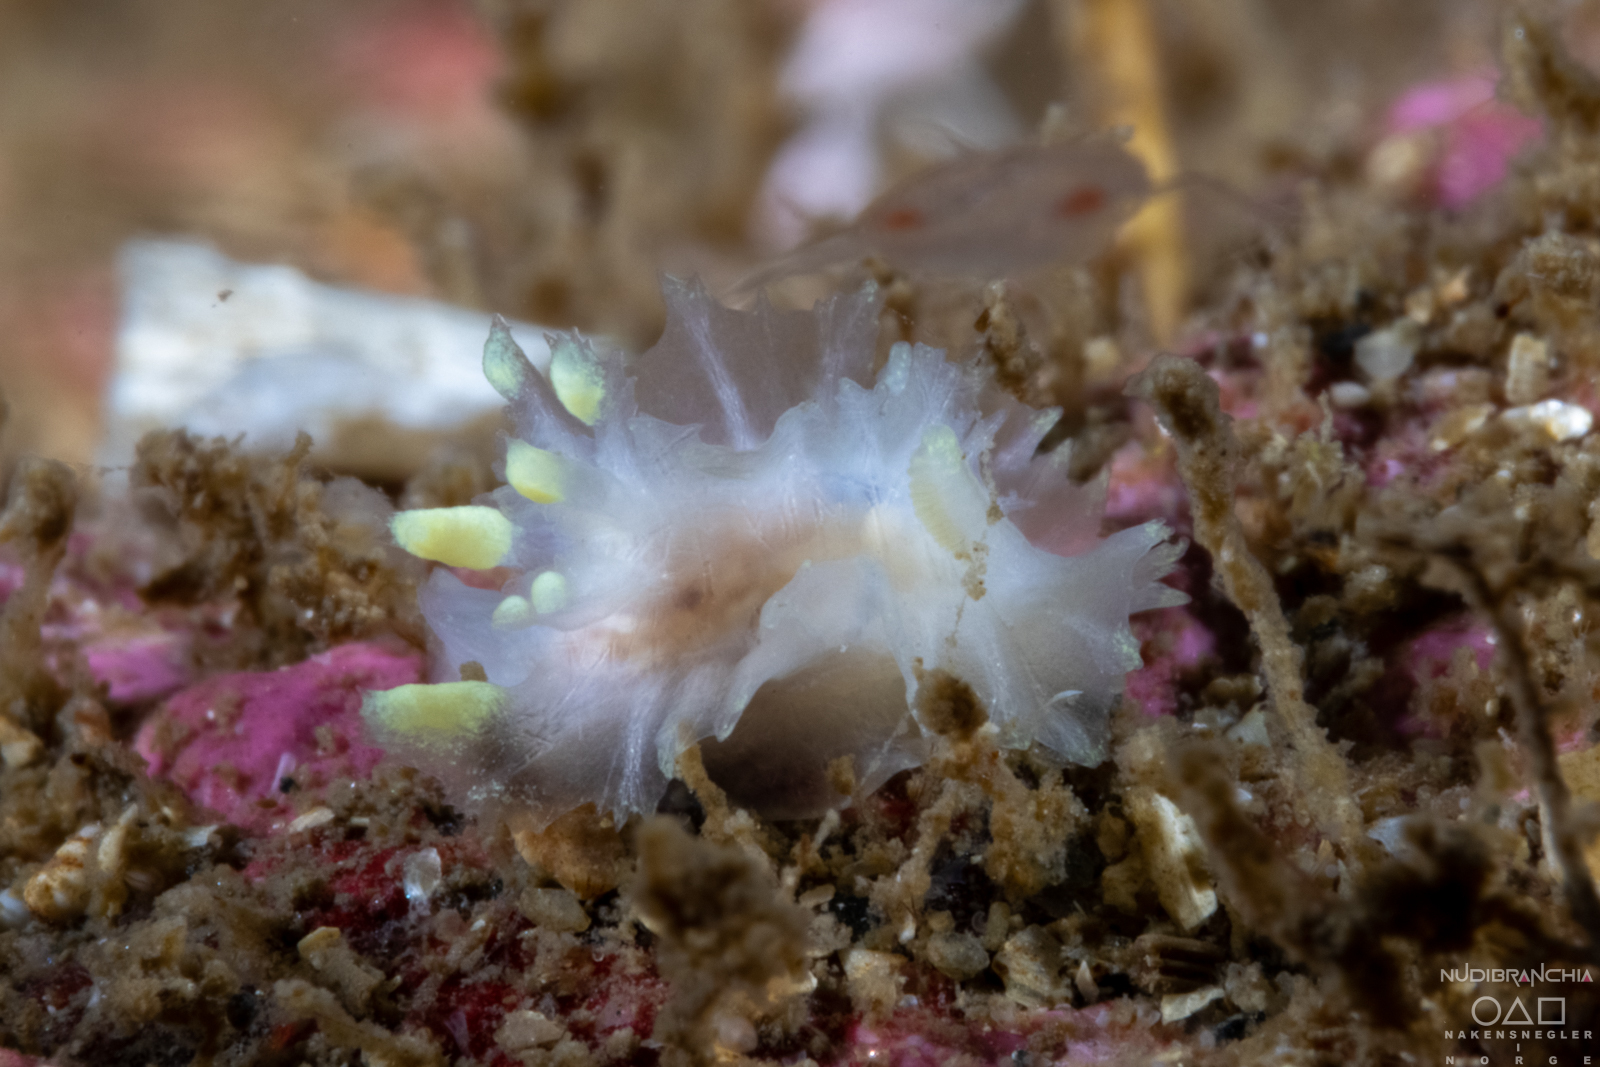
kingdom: Animalia
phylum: Mollusca
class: Gastropoda
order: Nudibranchia
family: Goniodorididae
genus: Lophodoris
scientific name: Lophodoris danielsseni
